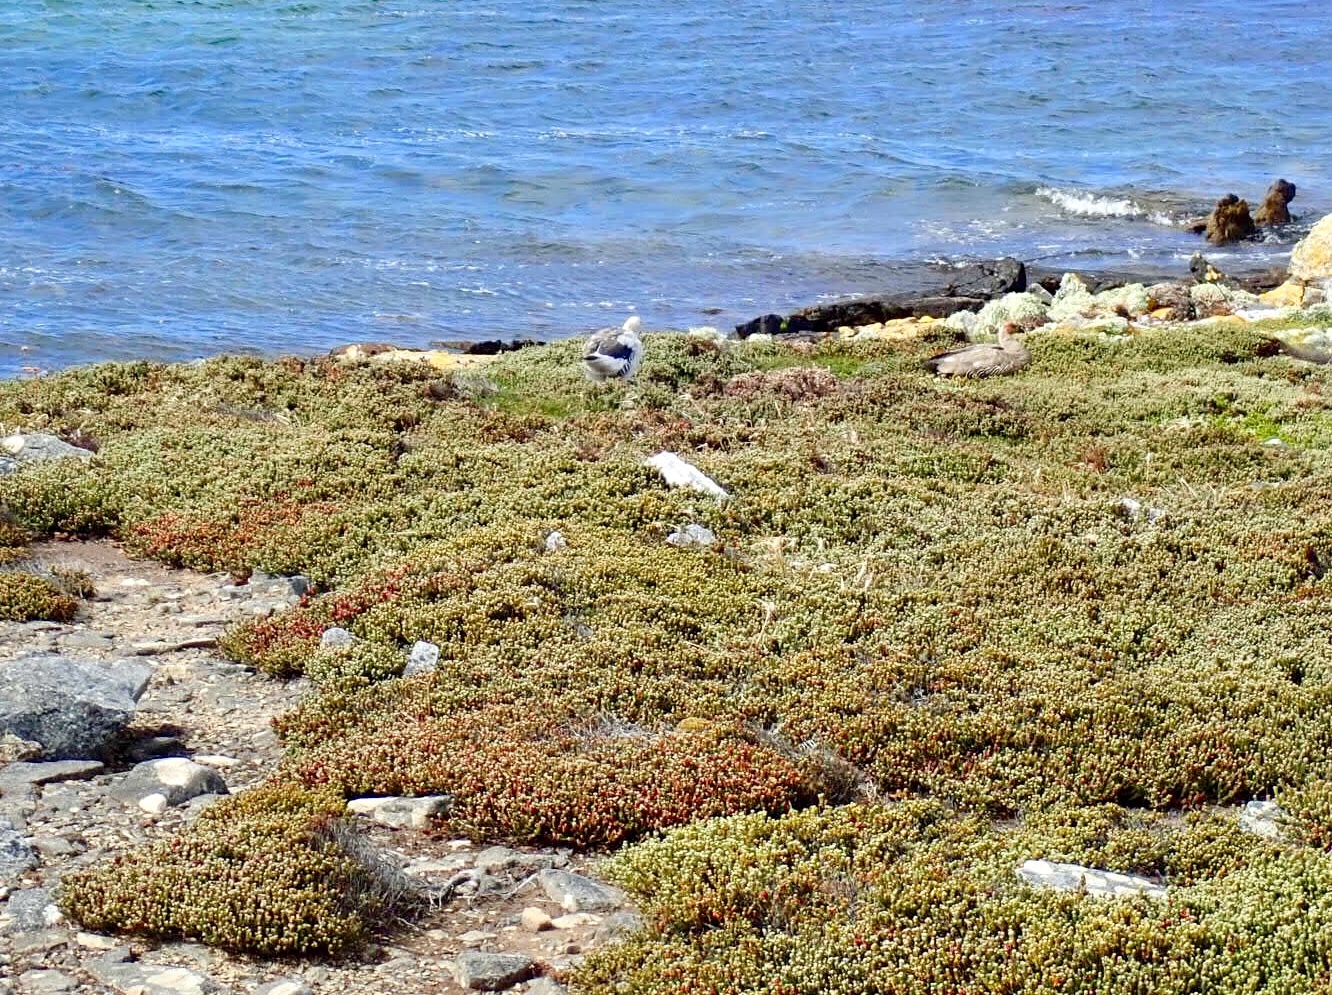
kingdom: Animalia
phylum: Chordata
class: Aves
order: Anseriformes
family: Anatidae
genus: Chloephaga
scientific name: Chloephaga picta
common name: Upland goose
